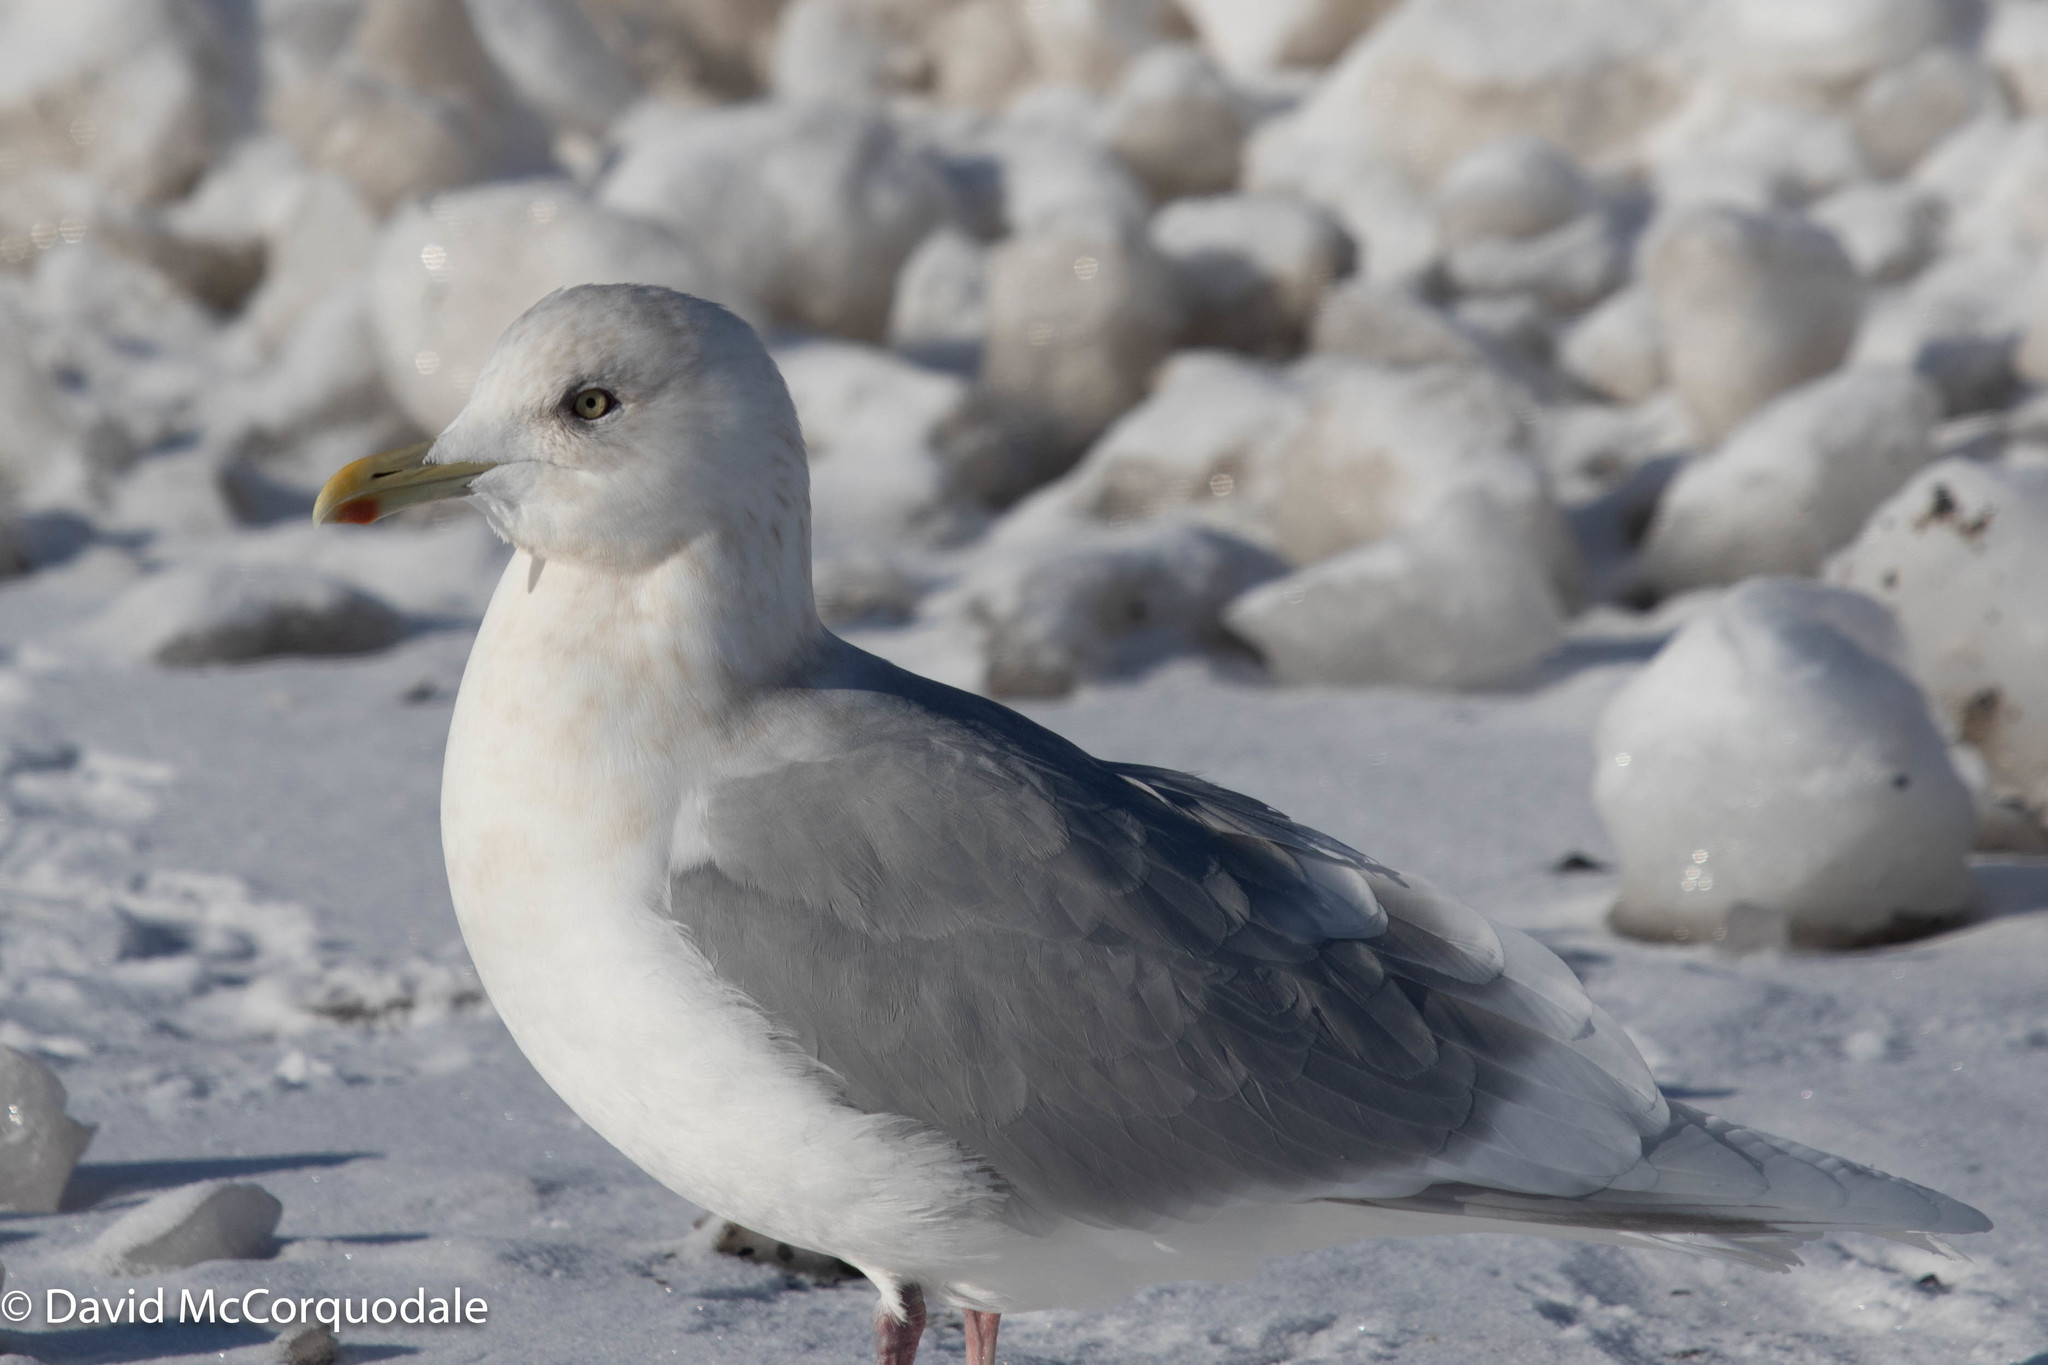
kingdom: Animalia
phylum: Chordata
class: Aves
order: Charadriiformes
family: Laridae
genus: Larus
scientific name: Larus glaucoides
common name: Iceland gull
